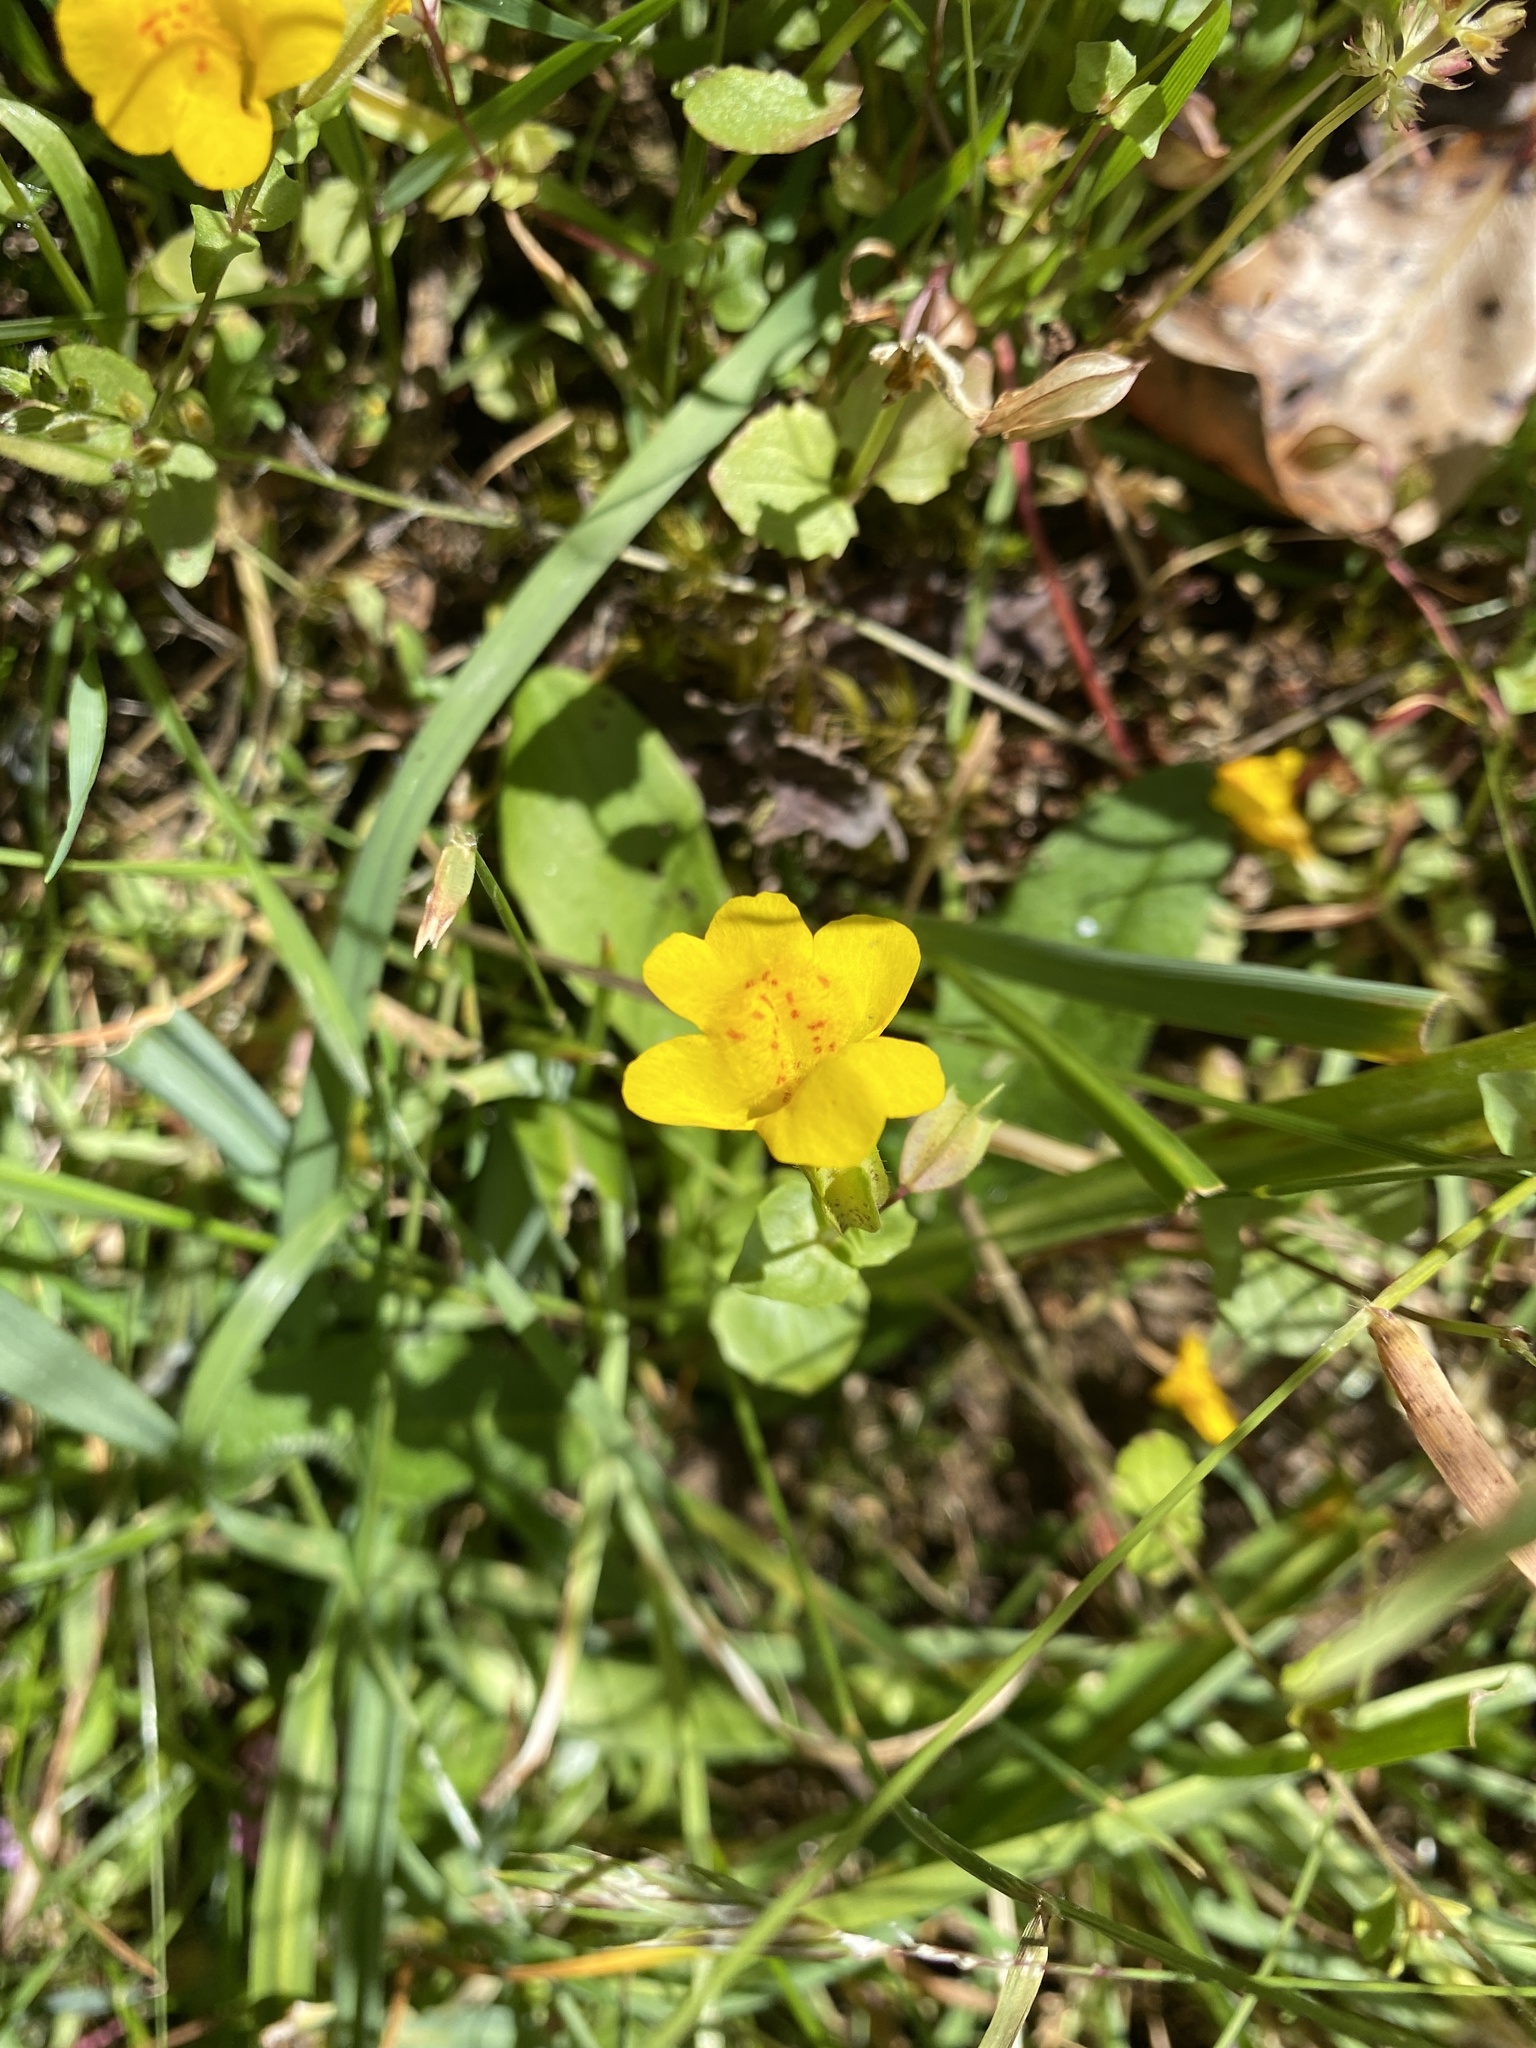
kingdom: Plantae
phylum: Tracheophyta
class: Magnoliopsida
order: Lamiales
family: Phrymaceae
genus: Erythranthe
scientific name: Erythranthe guttata
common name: Monkeyflower
